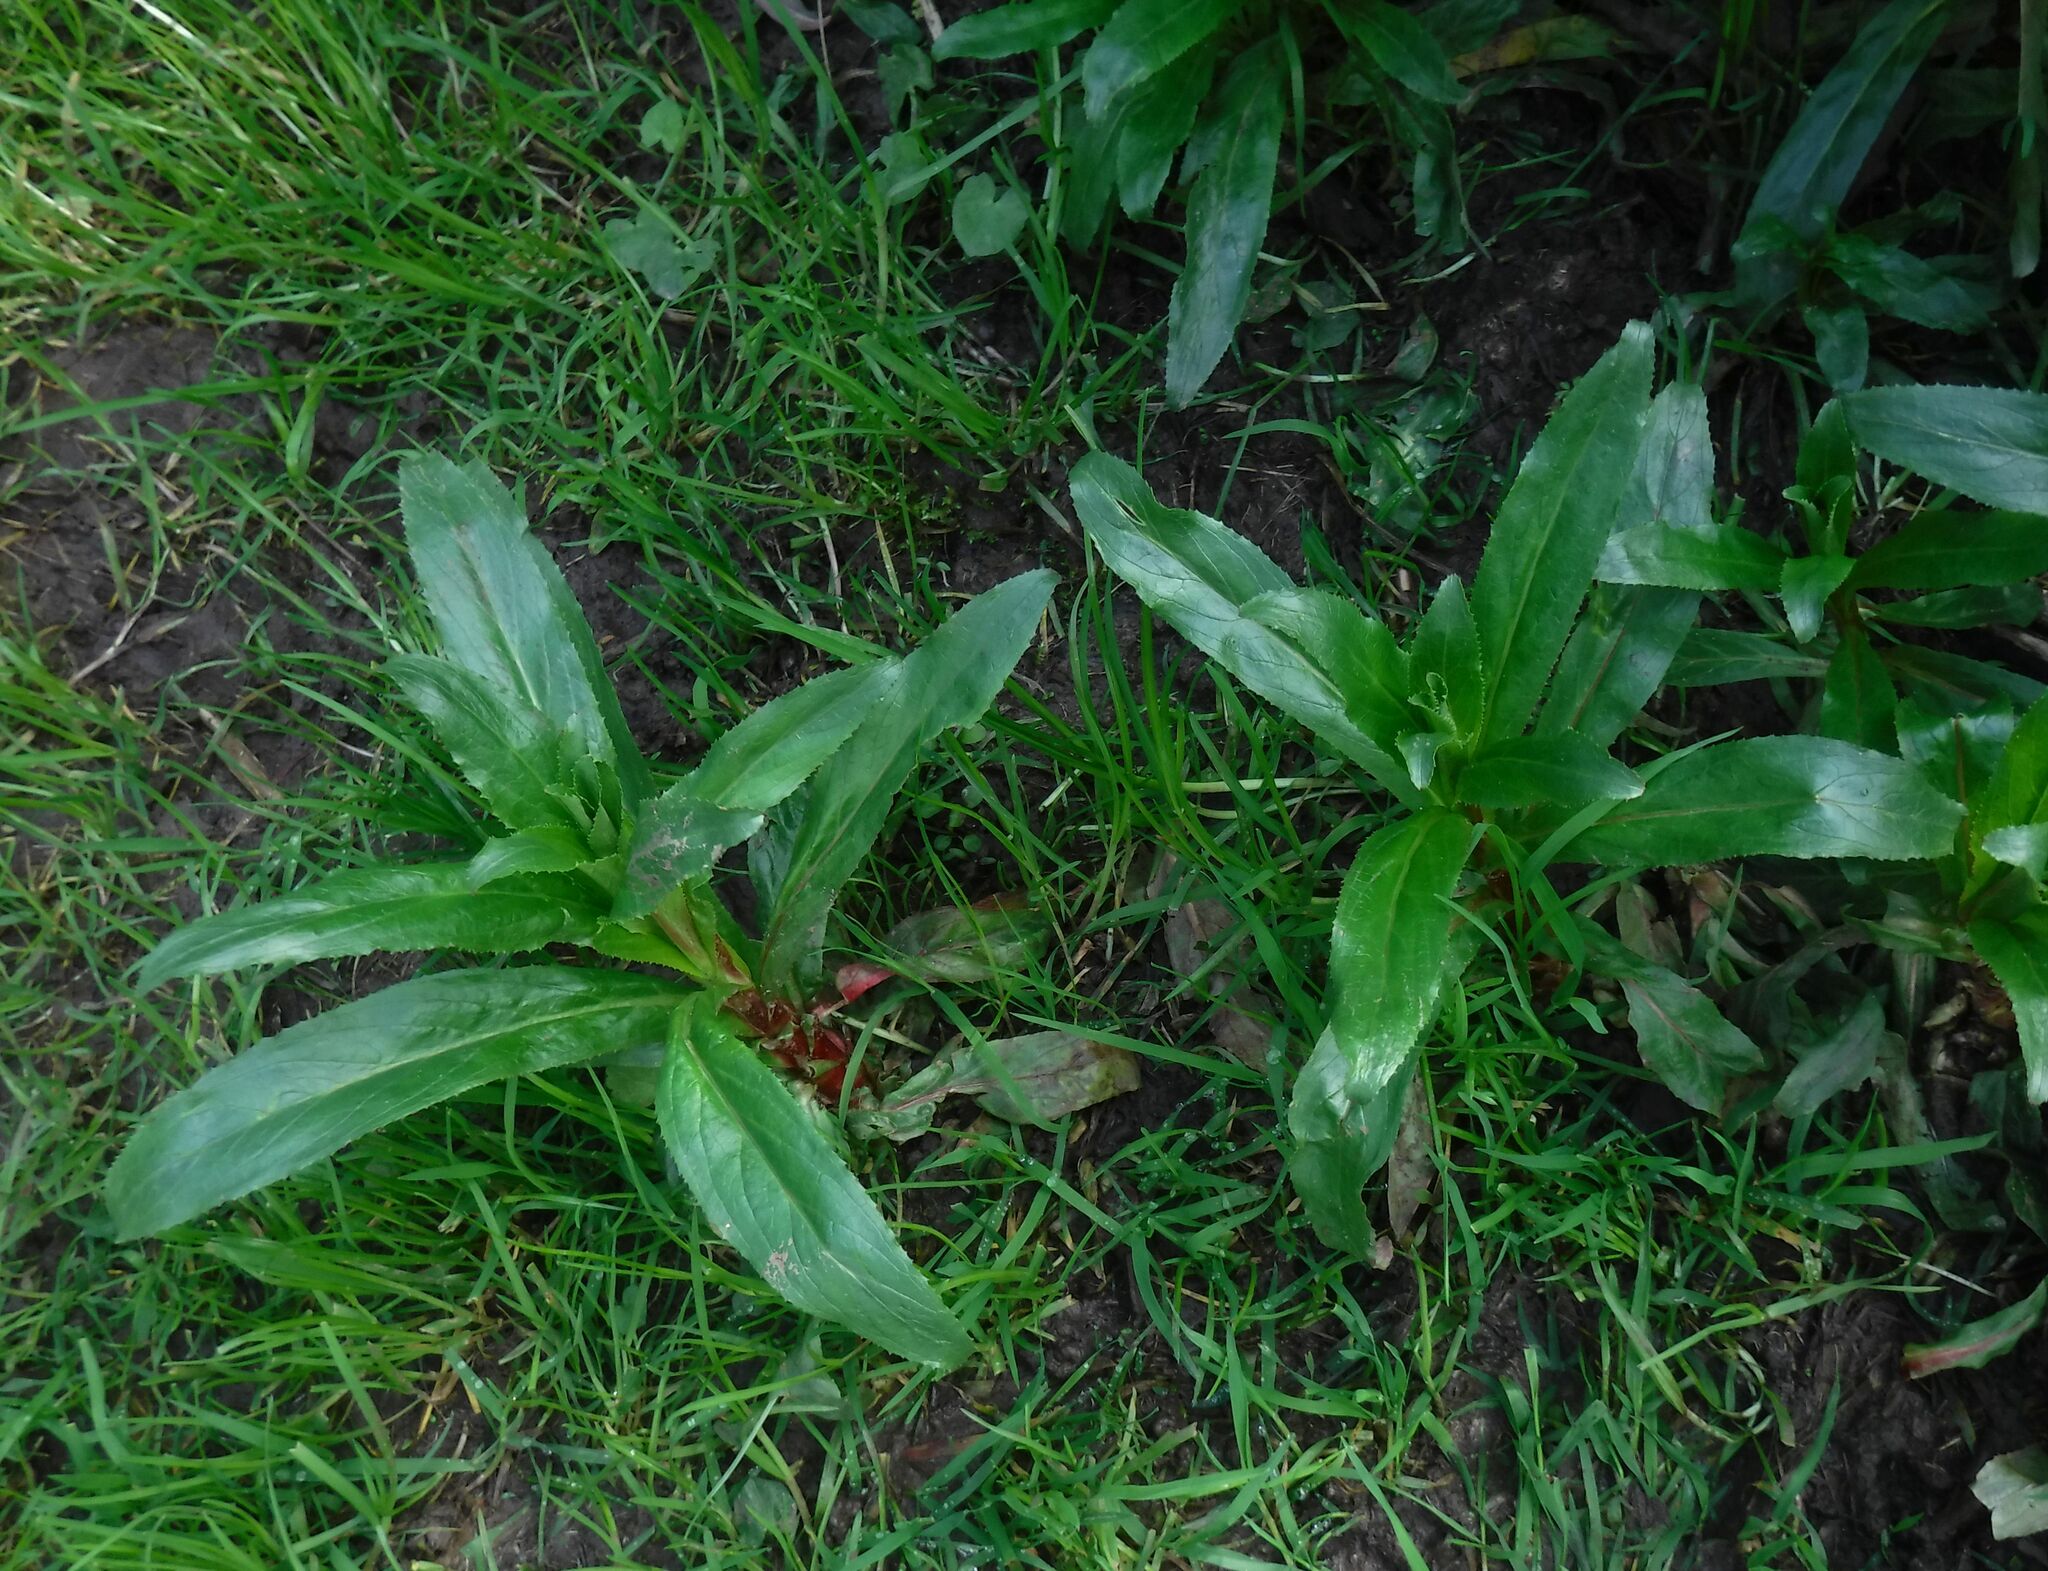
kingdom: Plantae
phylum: Tracheophyta
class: Magnoliopsida
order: Myrtales
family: Onagraceae
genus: Epilobium
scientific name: Epilobium hirsutum
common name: Great willowherb
